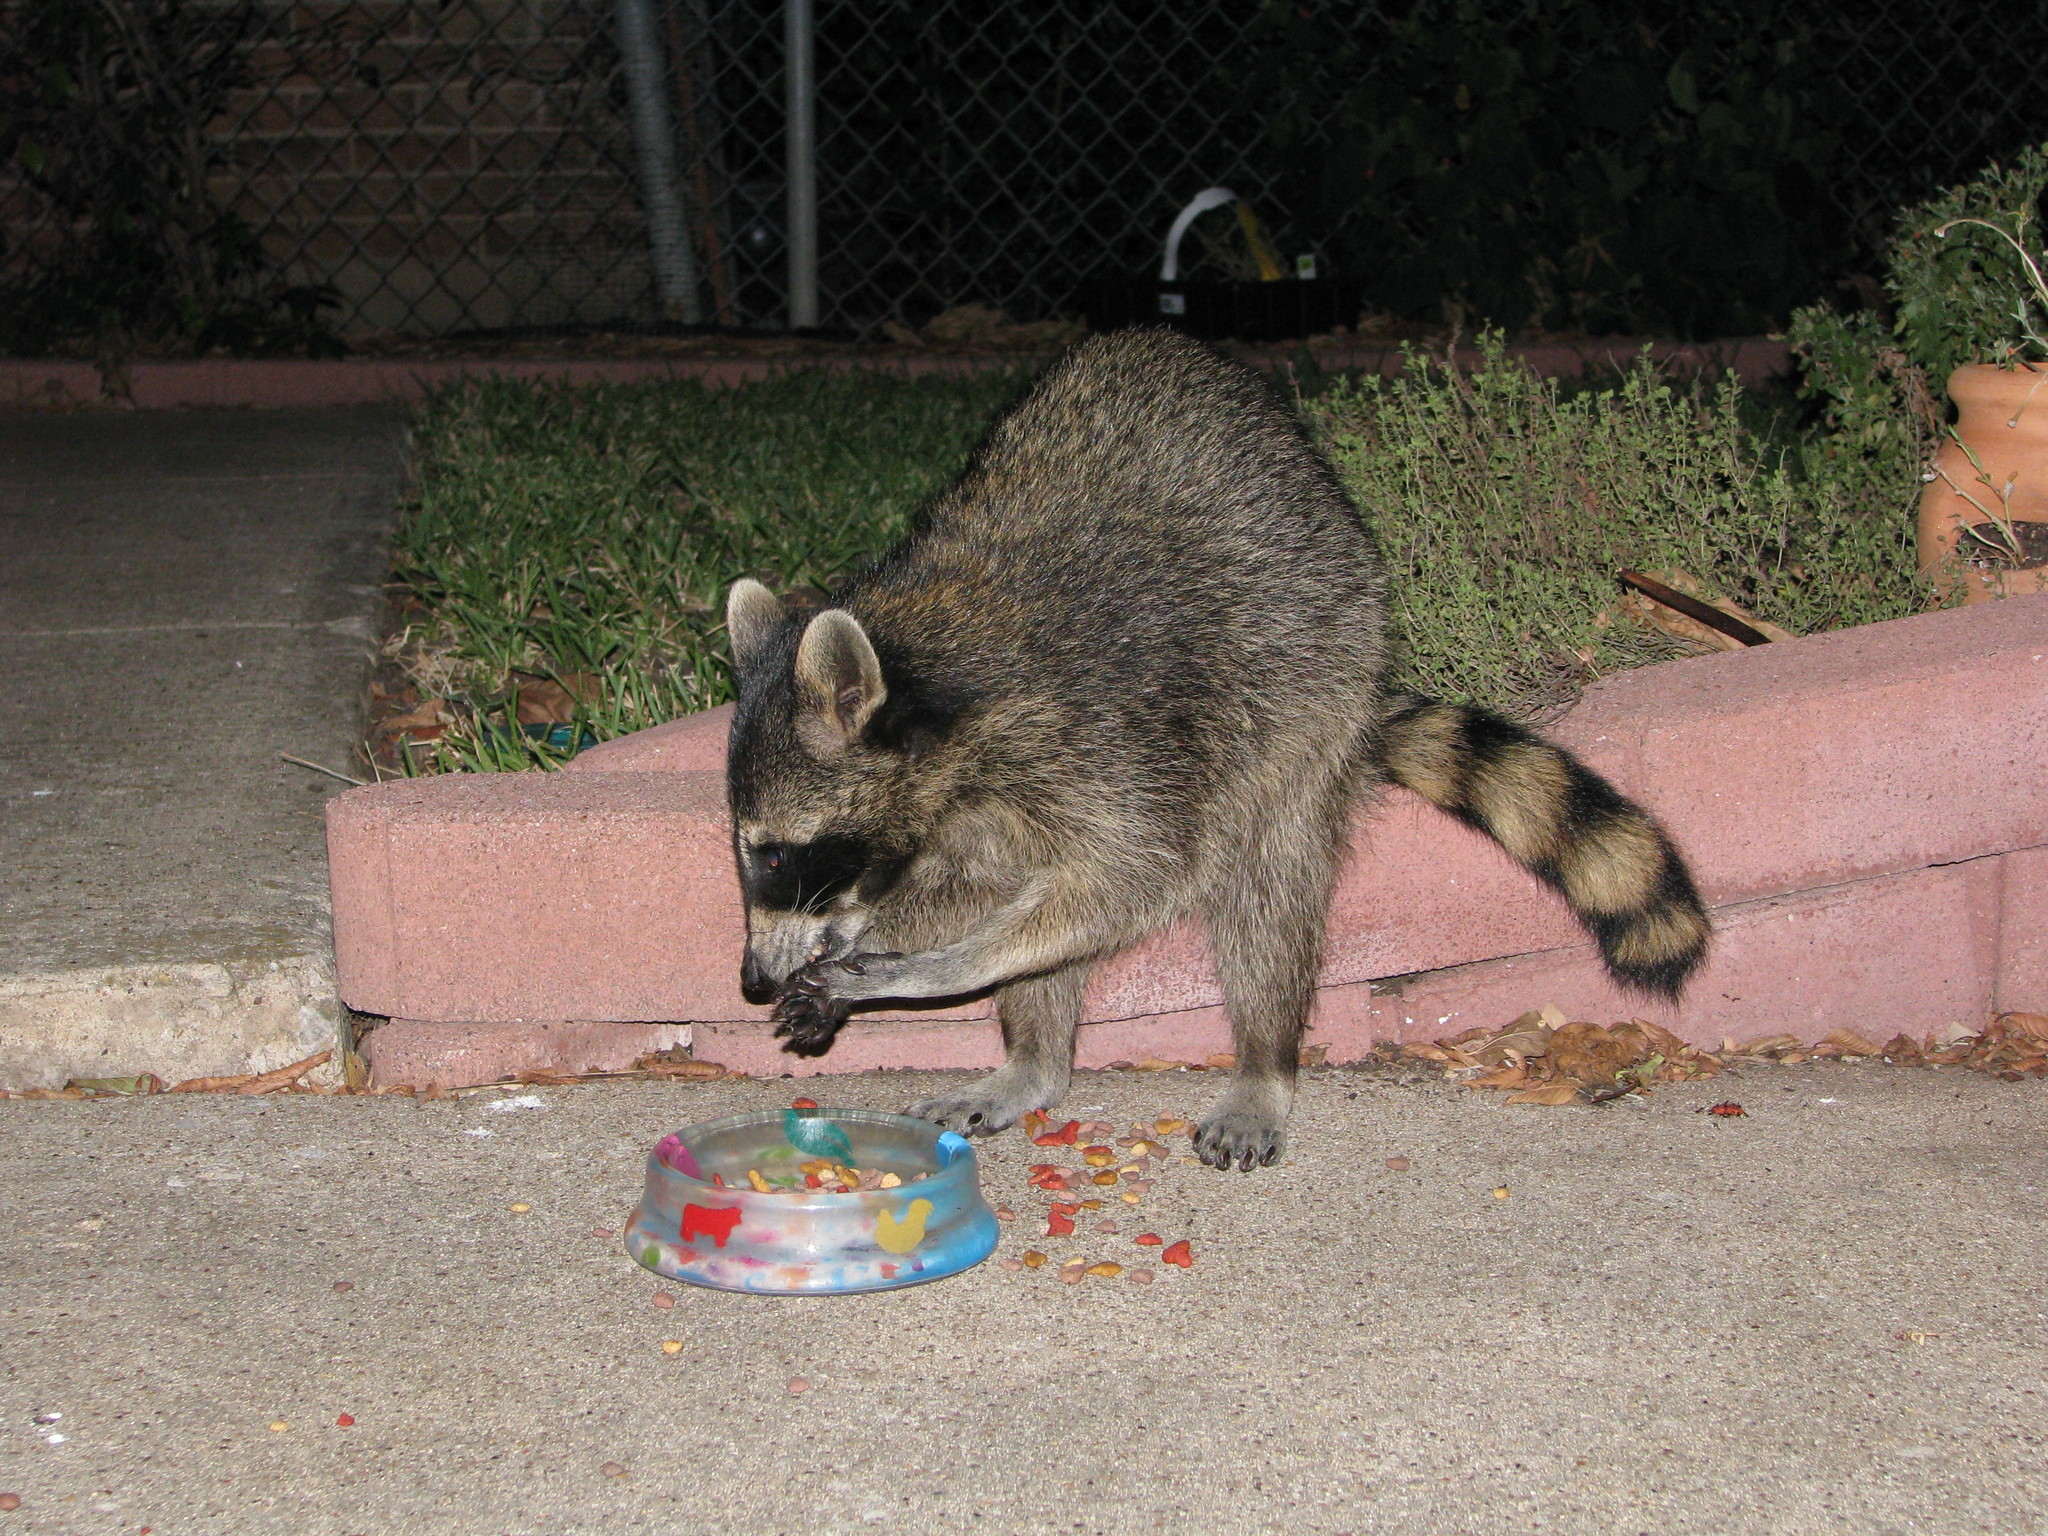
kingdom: Animalia
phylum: Chordata
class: Mammalia
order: Carnivora
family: Procyonidae
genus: Procyon
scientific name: Procyon lotor
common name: Raccoon
